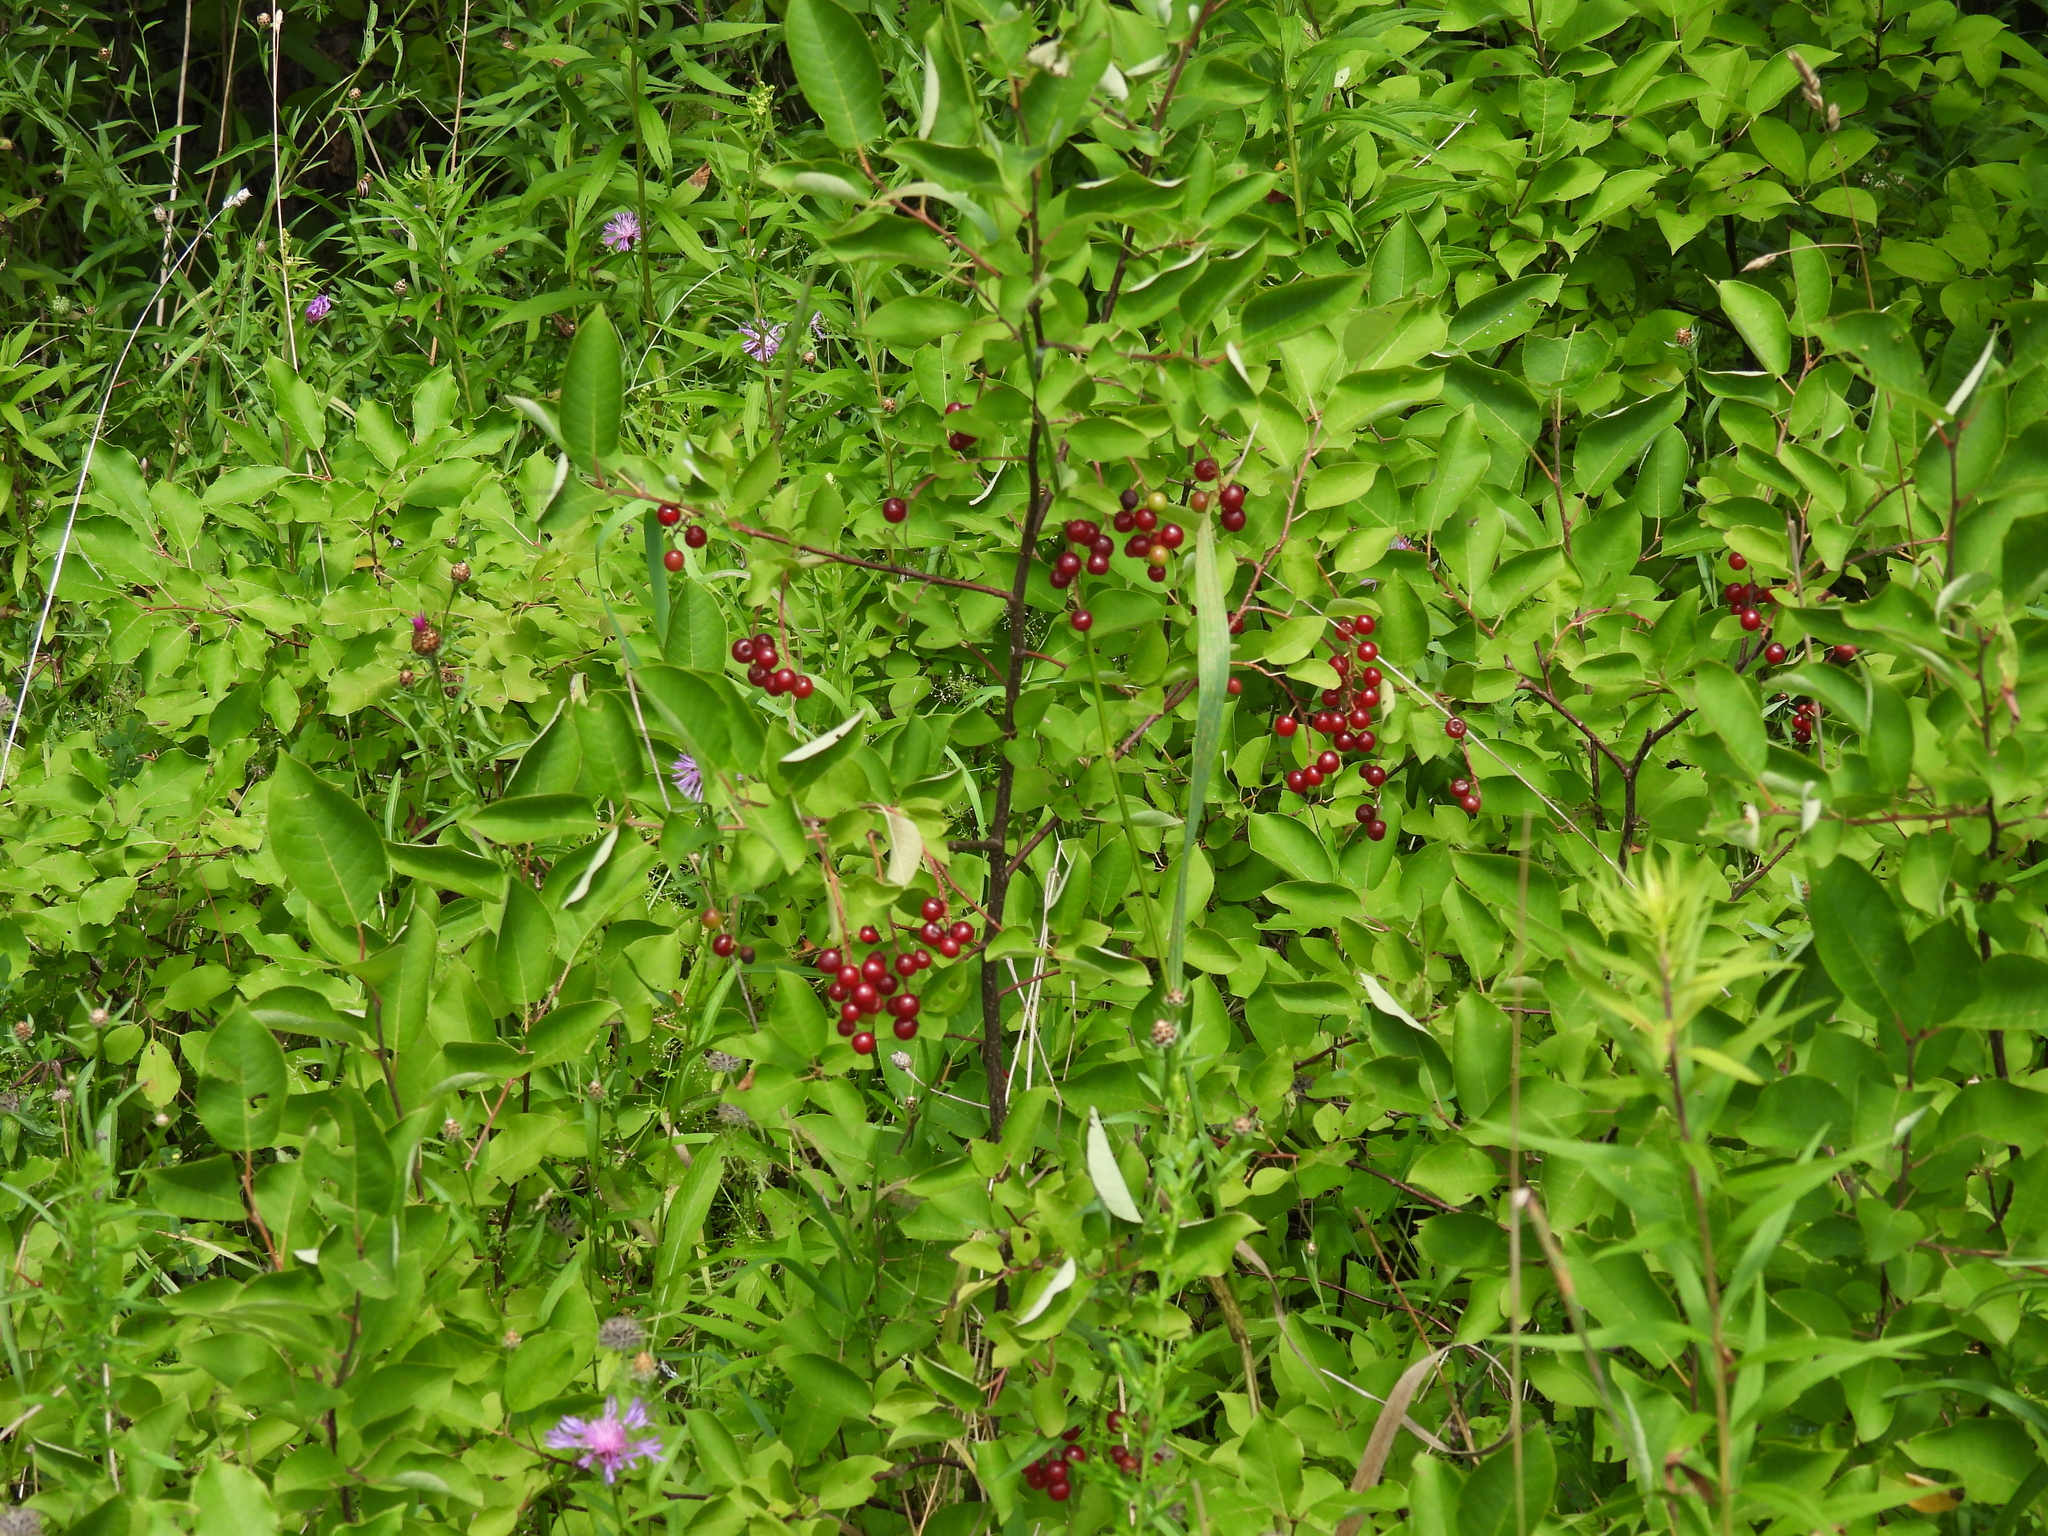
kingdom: Plantae
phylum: Tracheophyta
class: Magnoliopsida
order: Rosales
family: Rosaceae
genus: Prunus
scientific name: Prunus virginiana
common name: Chokecherry
